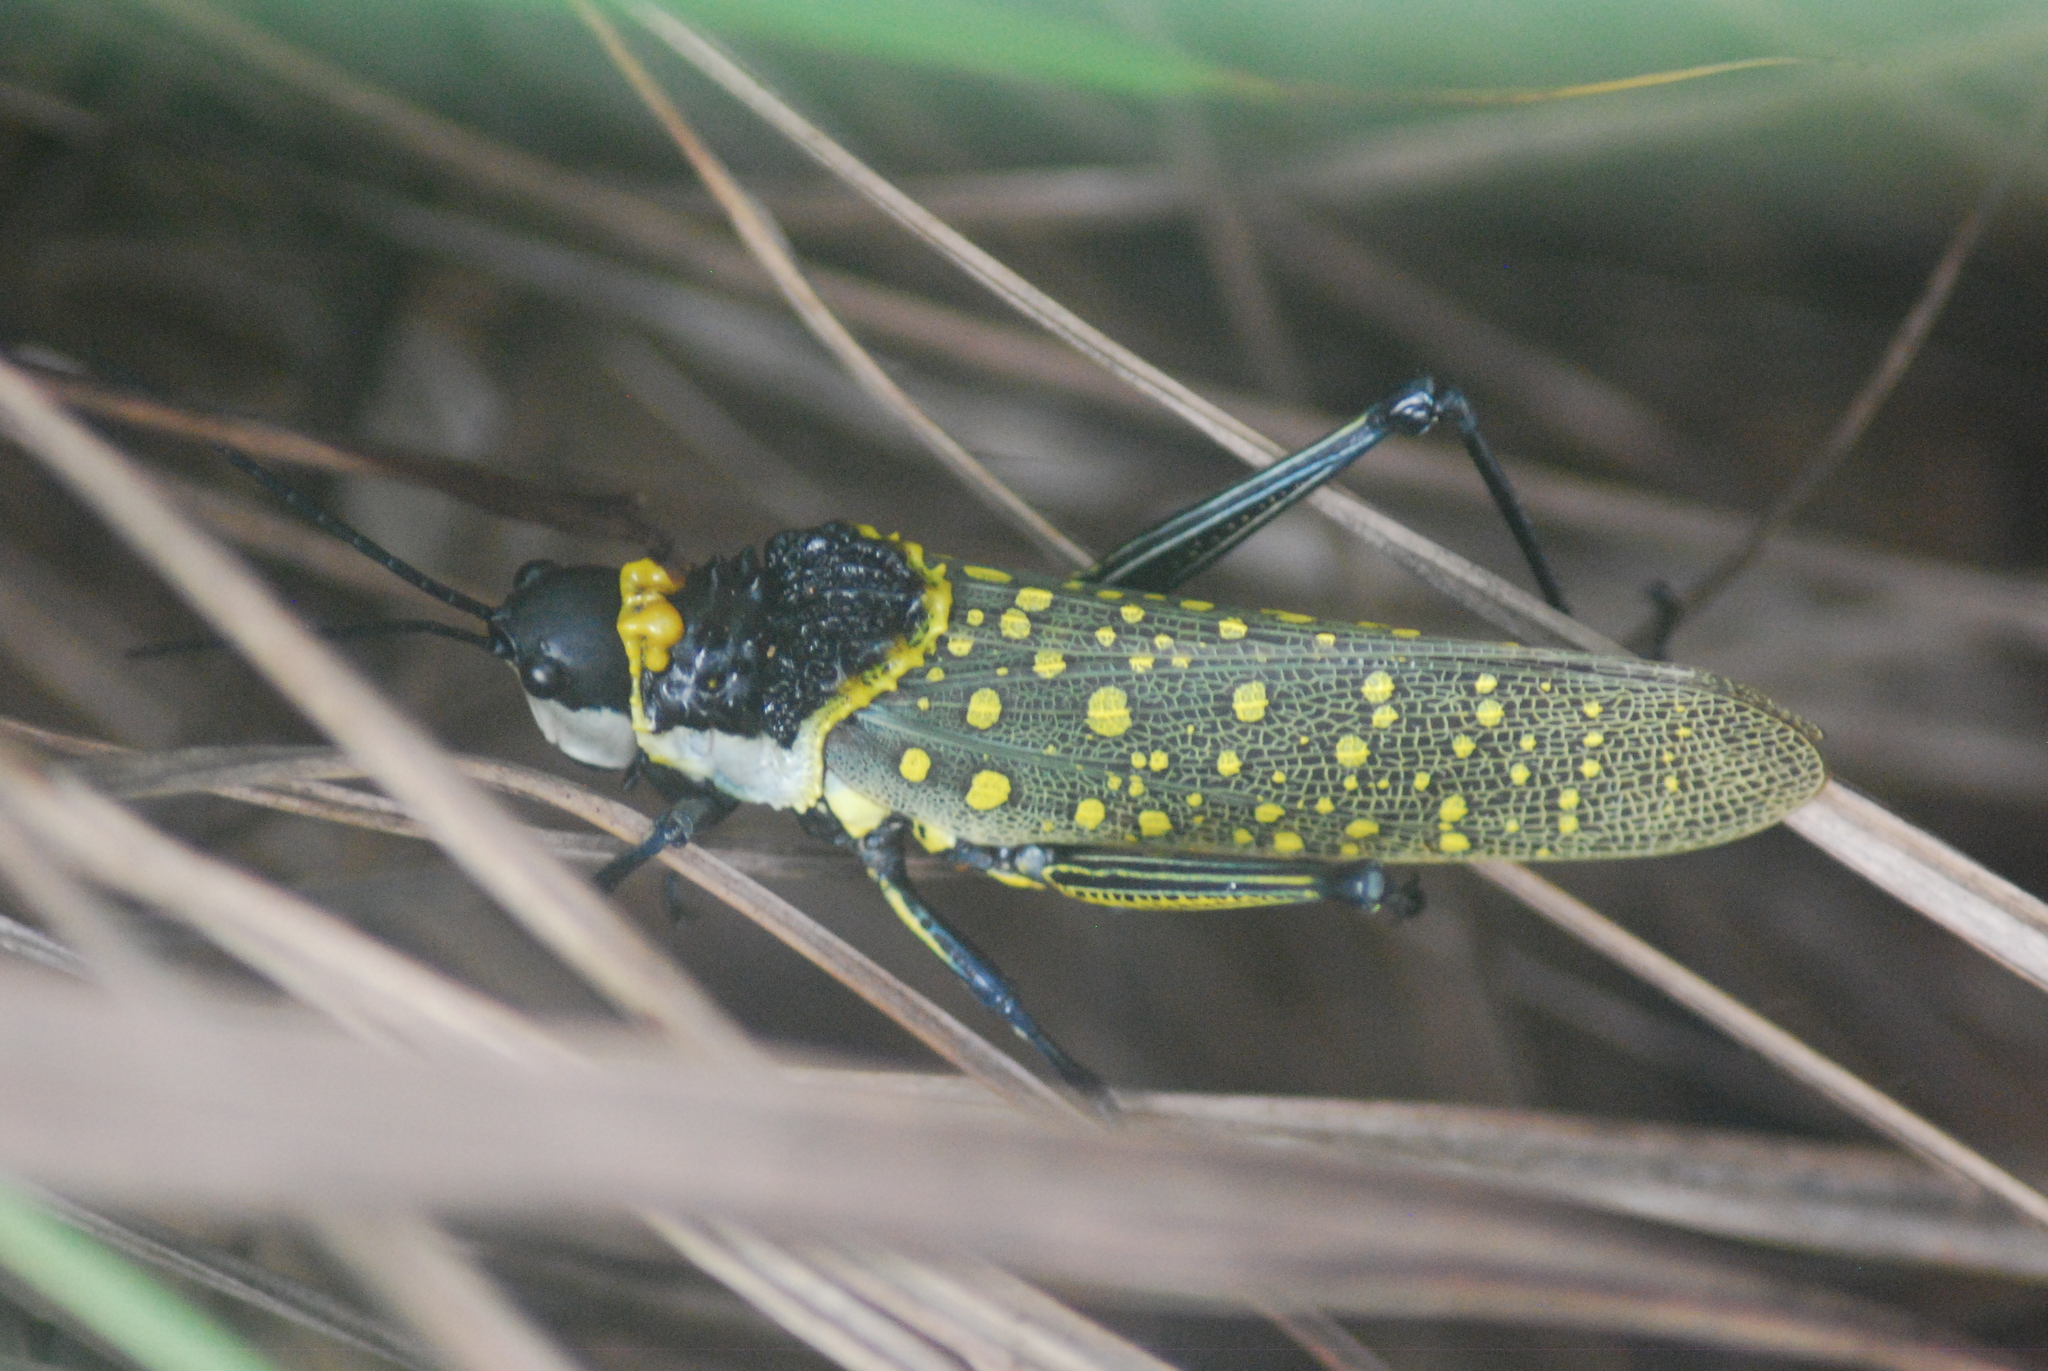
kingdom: Animalia
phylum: Arthropoda
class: Insecta
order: Orthoptera
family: Pyrgomorphidae
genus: Aularches
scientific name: Aularches miliaris
